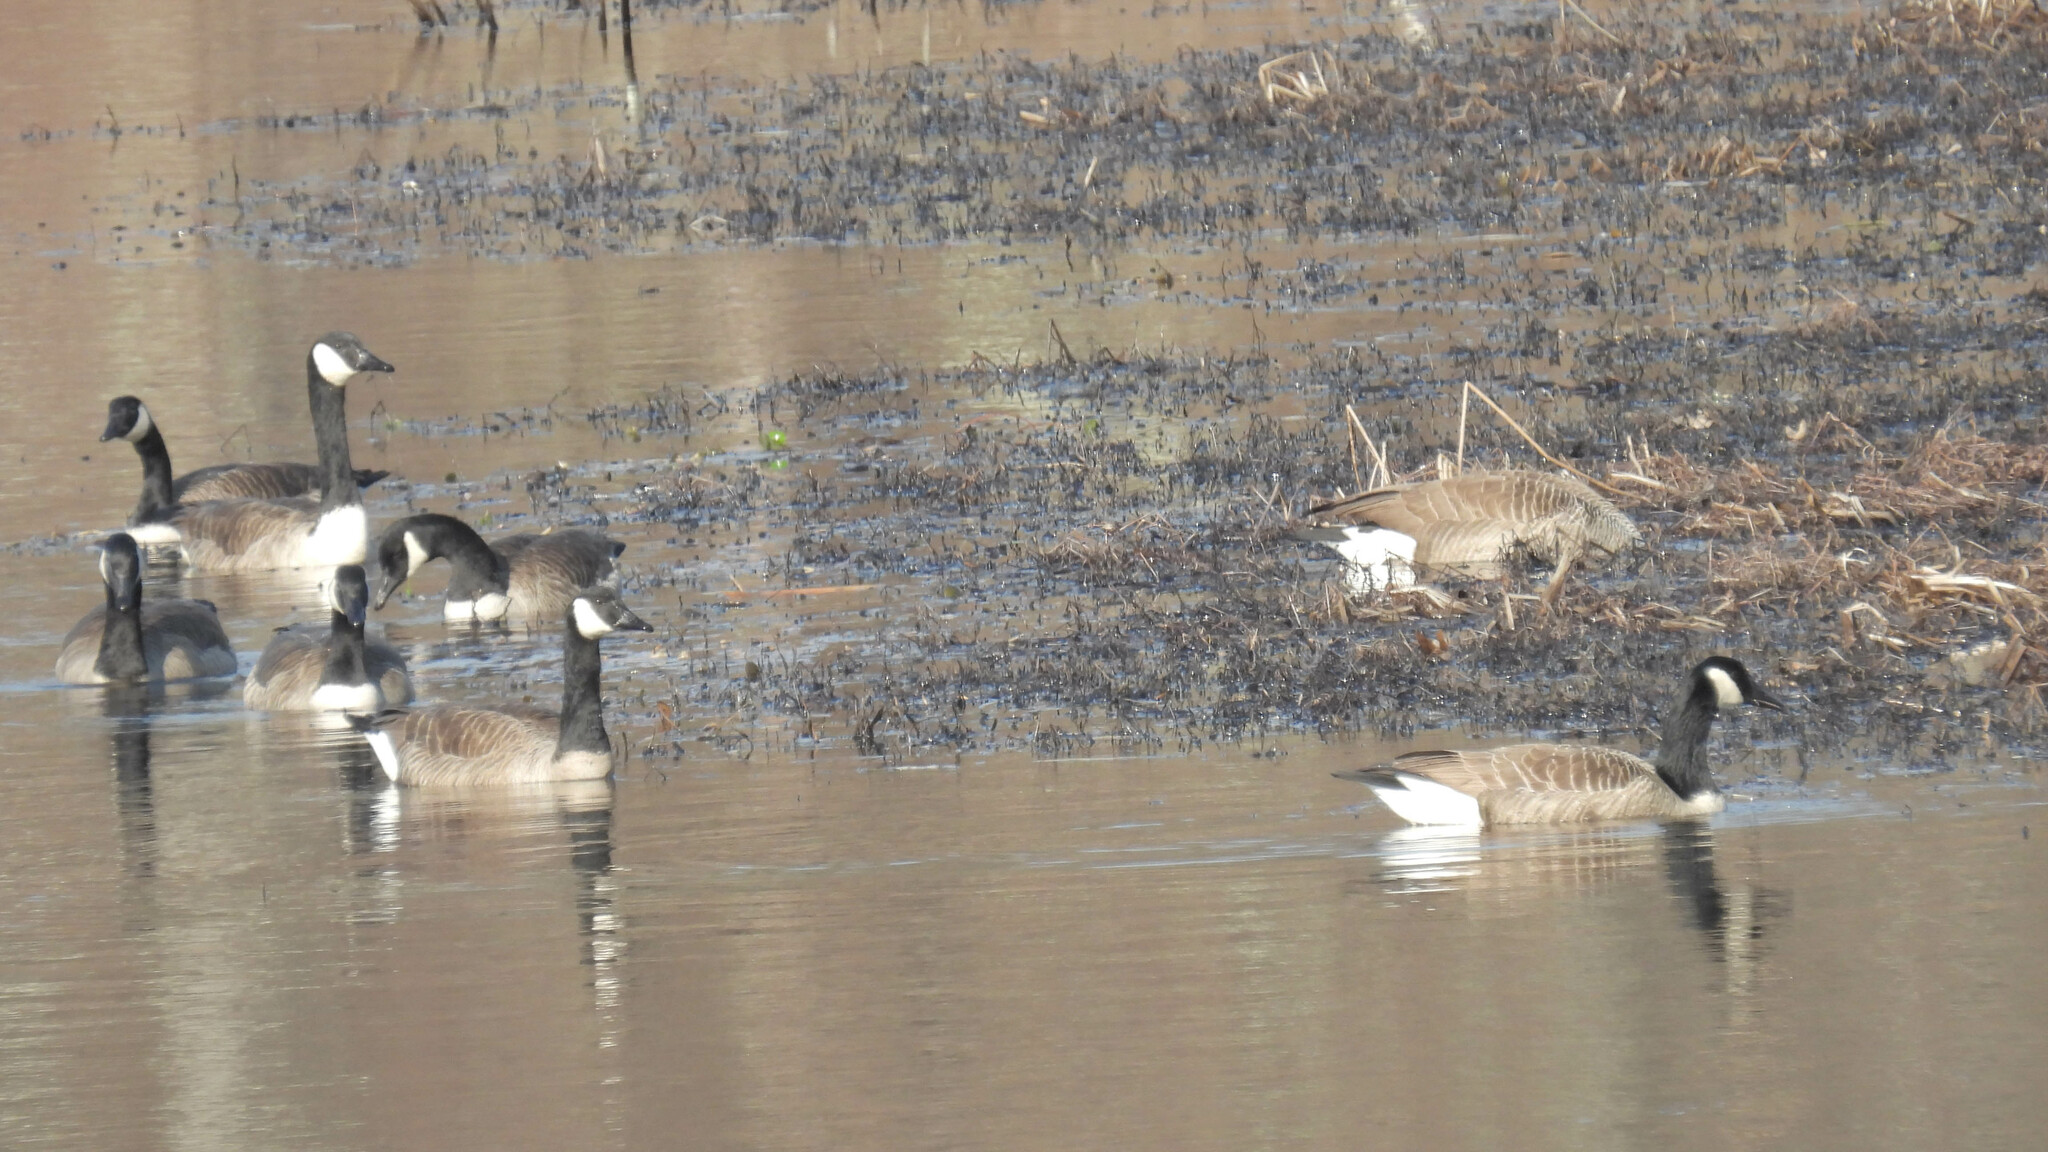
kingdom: Animalia
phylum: Chordata
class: Aves
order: Anseriformes
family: Anatidae
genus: Branta
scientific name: Branta canadensis
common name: Canada goose
